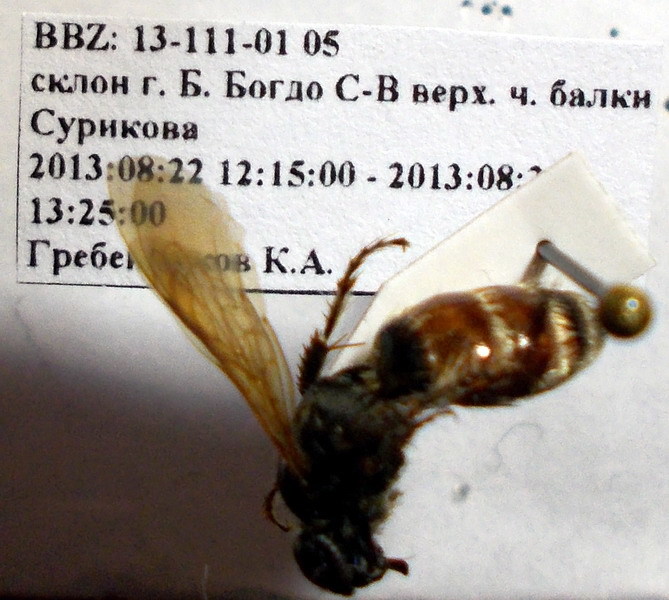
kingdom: Animalia
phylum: Arthropoda
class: Insecta
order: Hymenoptera
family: Scoliidae
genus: Colpa
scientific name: Colpa quinquecincta
